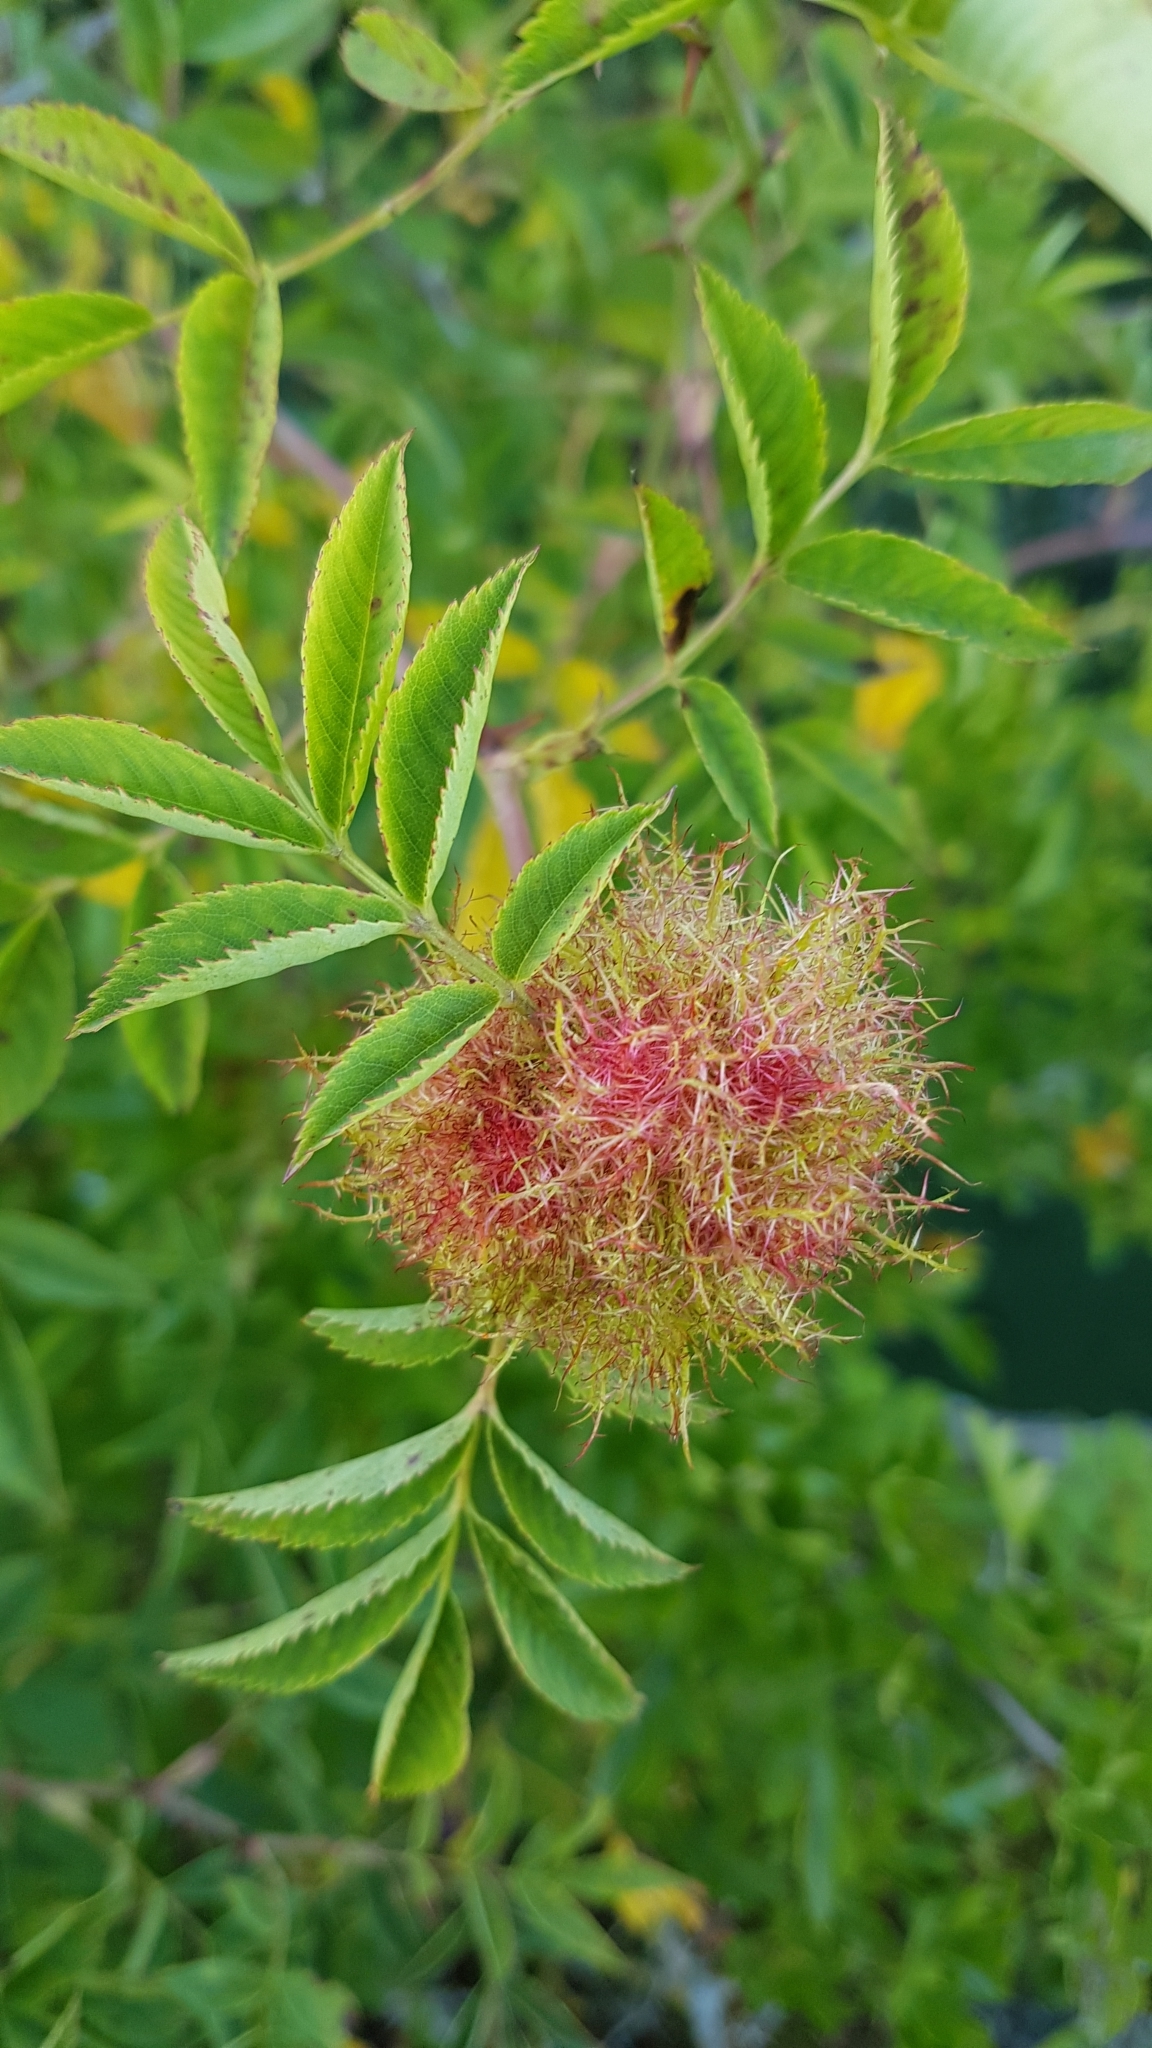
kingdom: Animalia
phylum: Arthropoda
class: Insecta
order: Hymenoptera
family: Cynipidae
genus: Diplolepis
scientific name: Diplolepis rosae
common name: Bedeguar gall
